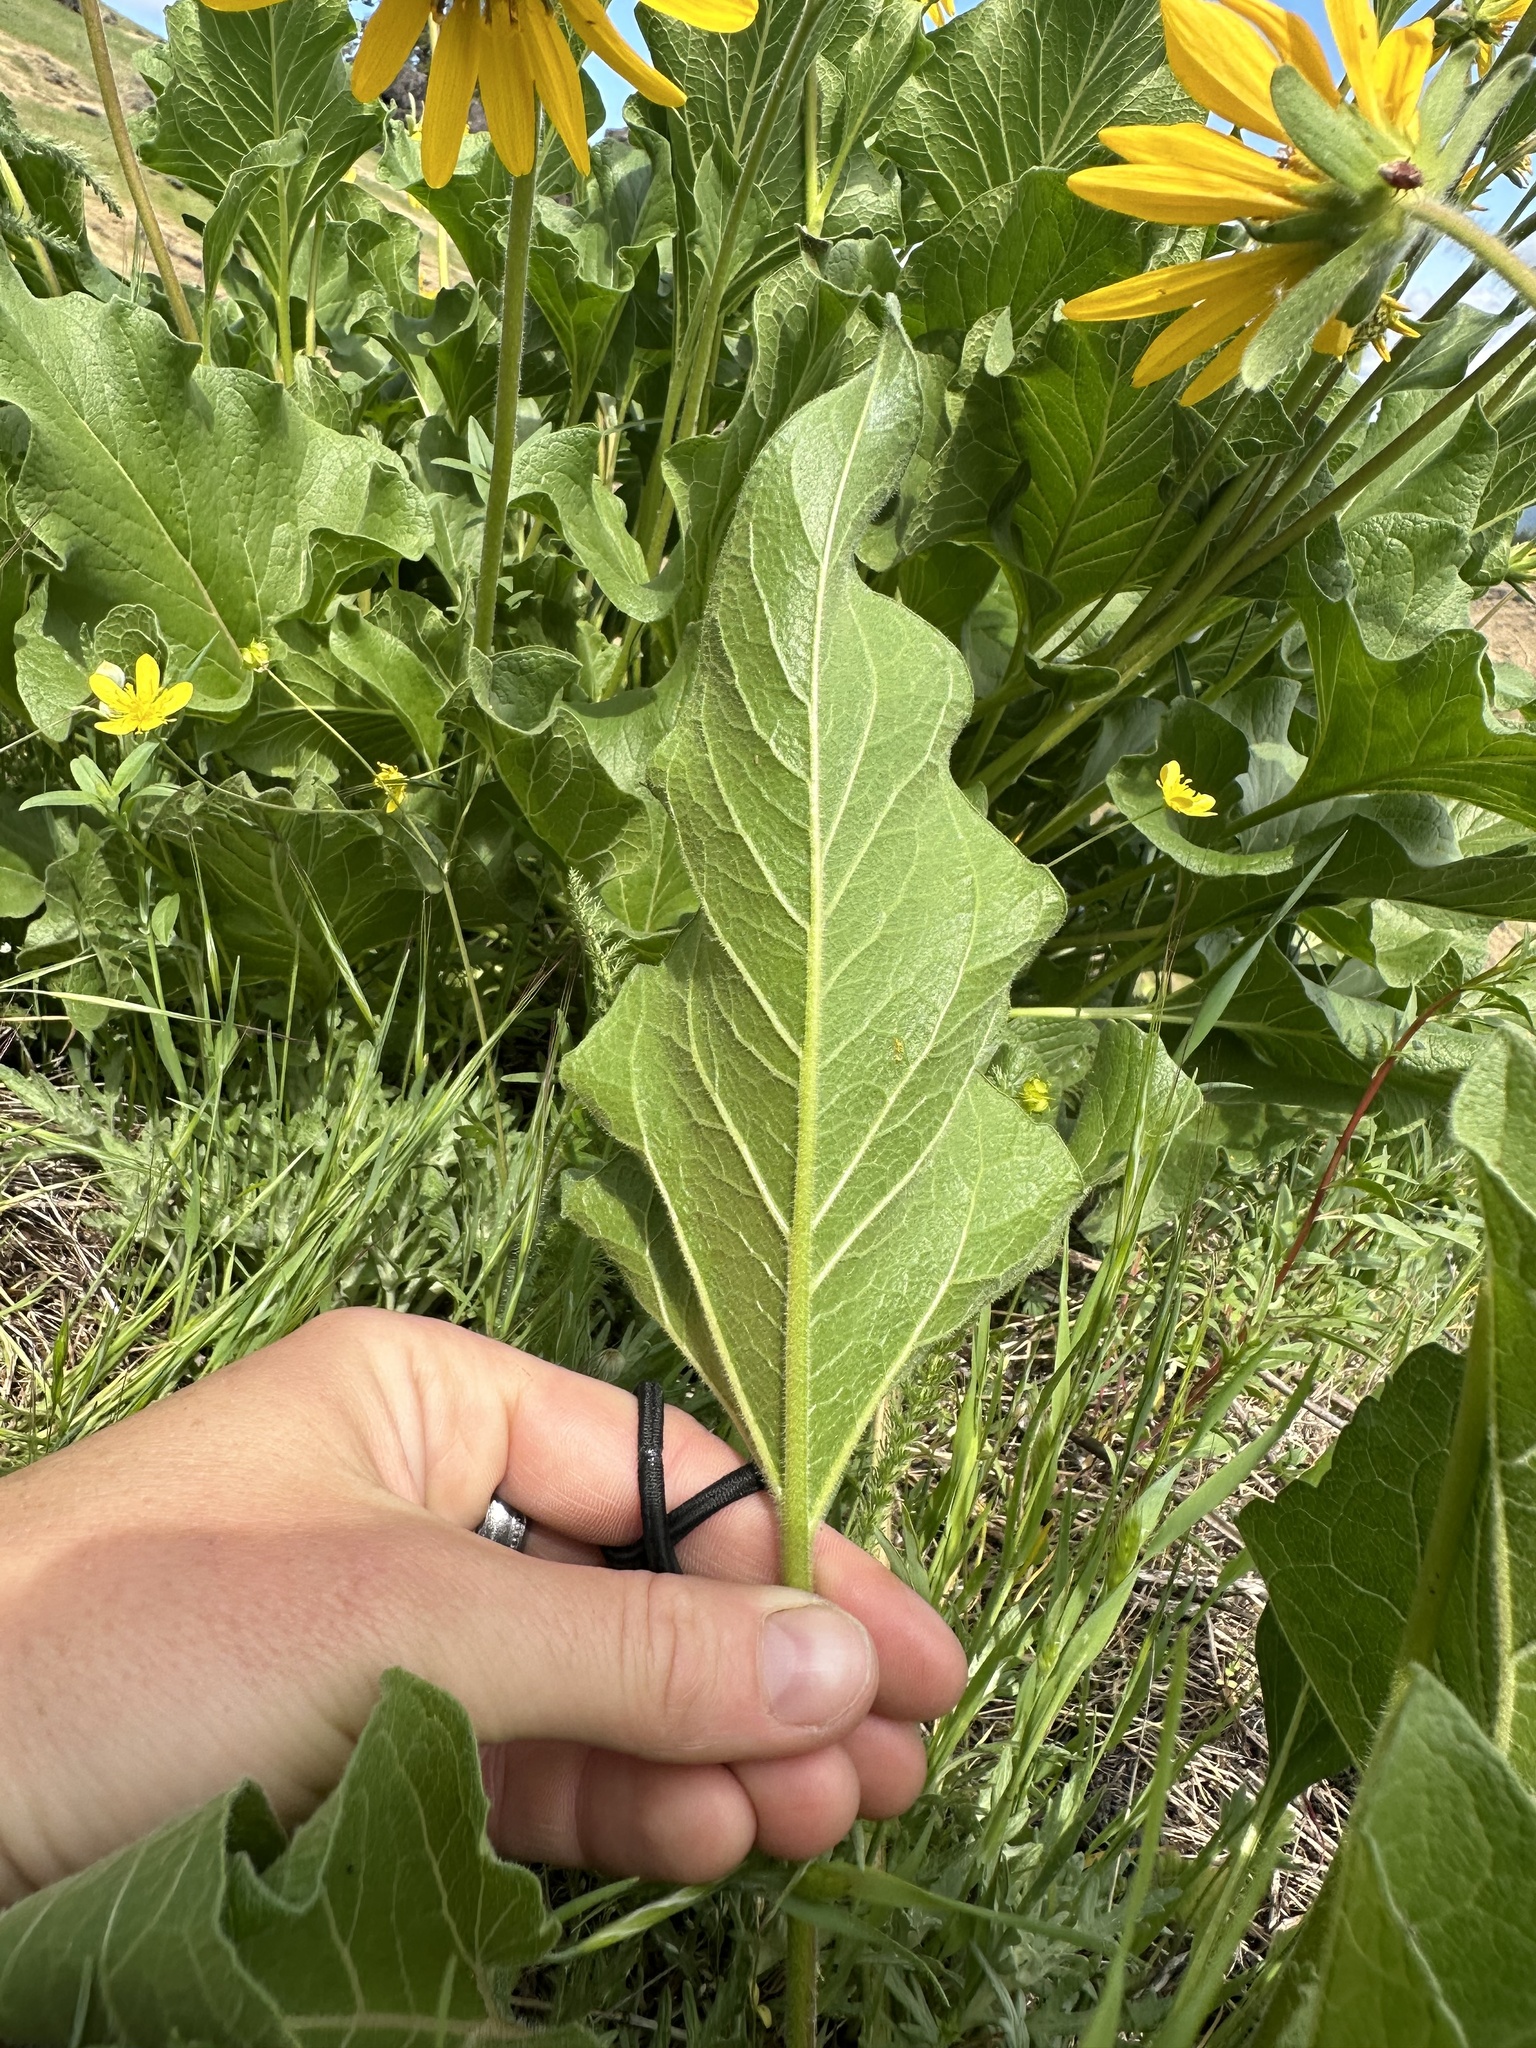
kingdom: Plantae
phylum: Tracheophyta
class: Magnoliopsida
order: Asterales
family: Asteraceae
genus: Balsamorhiza
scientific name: Balsamorhiza deltoidea
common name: Deltoid balsamroot
